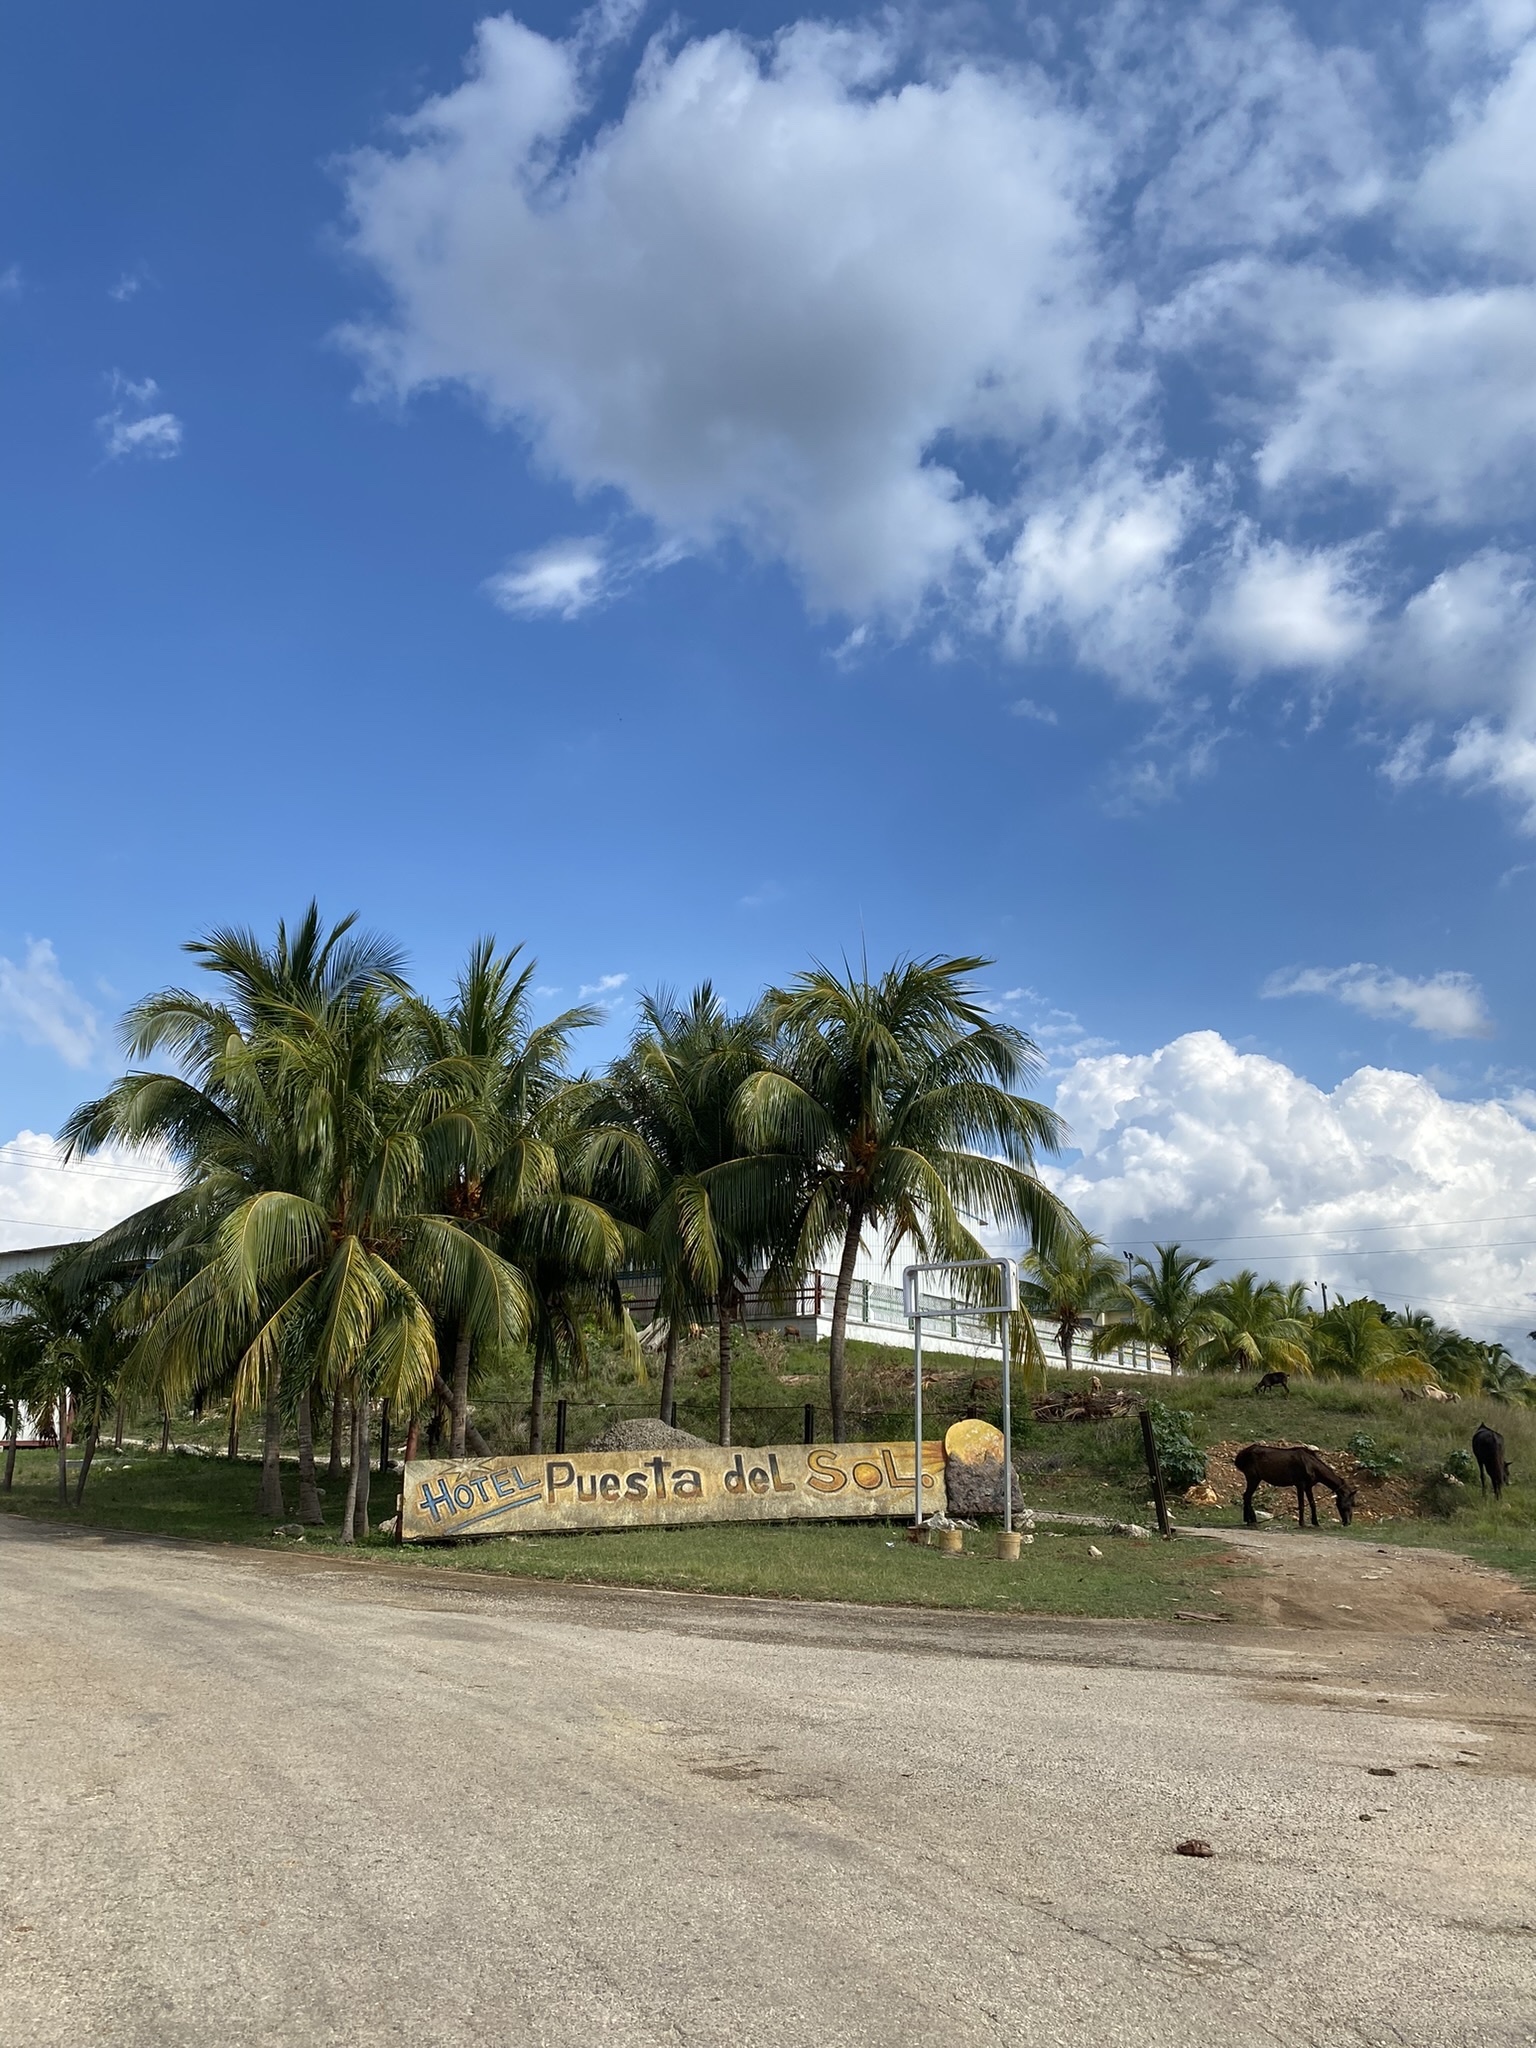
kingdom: Plantae
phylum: Tracheophyta
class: Liliopsida
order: Arecales
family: Arecaceae
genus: Cocos
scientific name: Cocos nucifera
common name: Coconut palm
